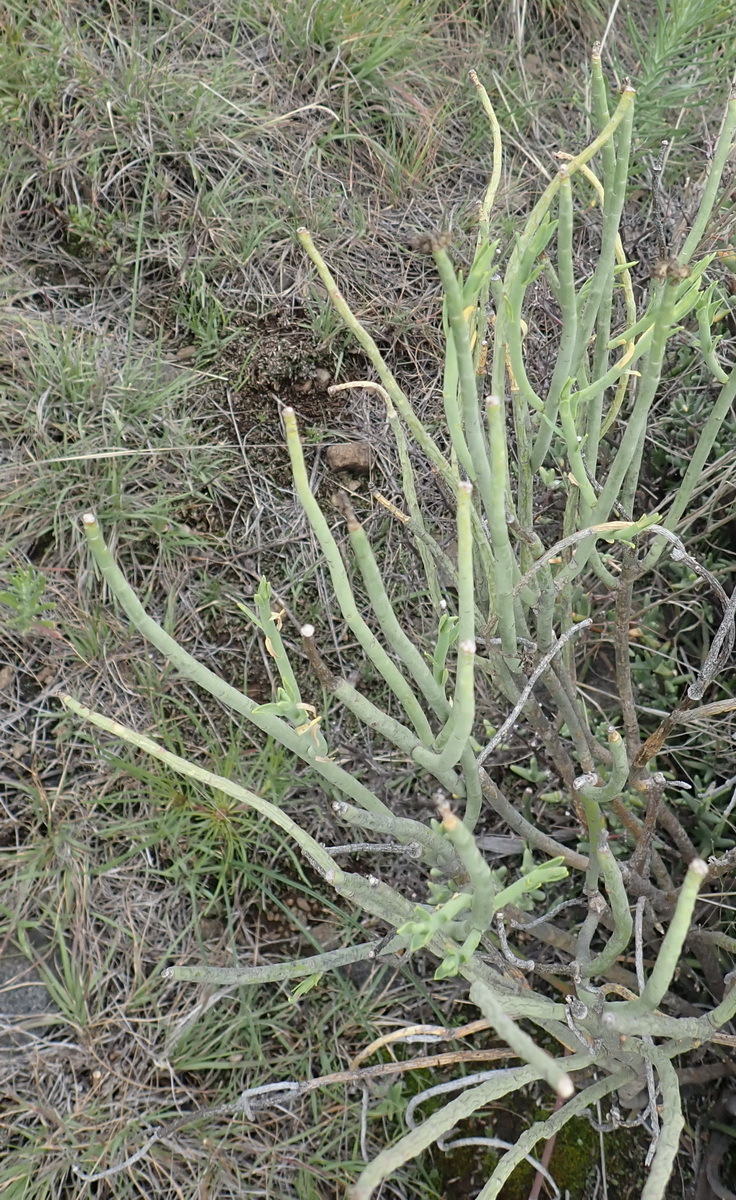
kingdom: Plantae
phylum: Tracheophyta
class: Magnoliopsida
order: Malpighiales
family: Euphorbiaceae
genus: Euphorbia
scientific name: Euphorbia mauritanica
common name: Jackal's-food
